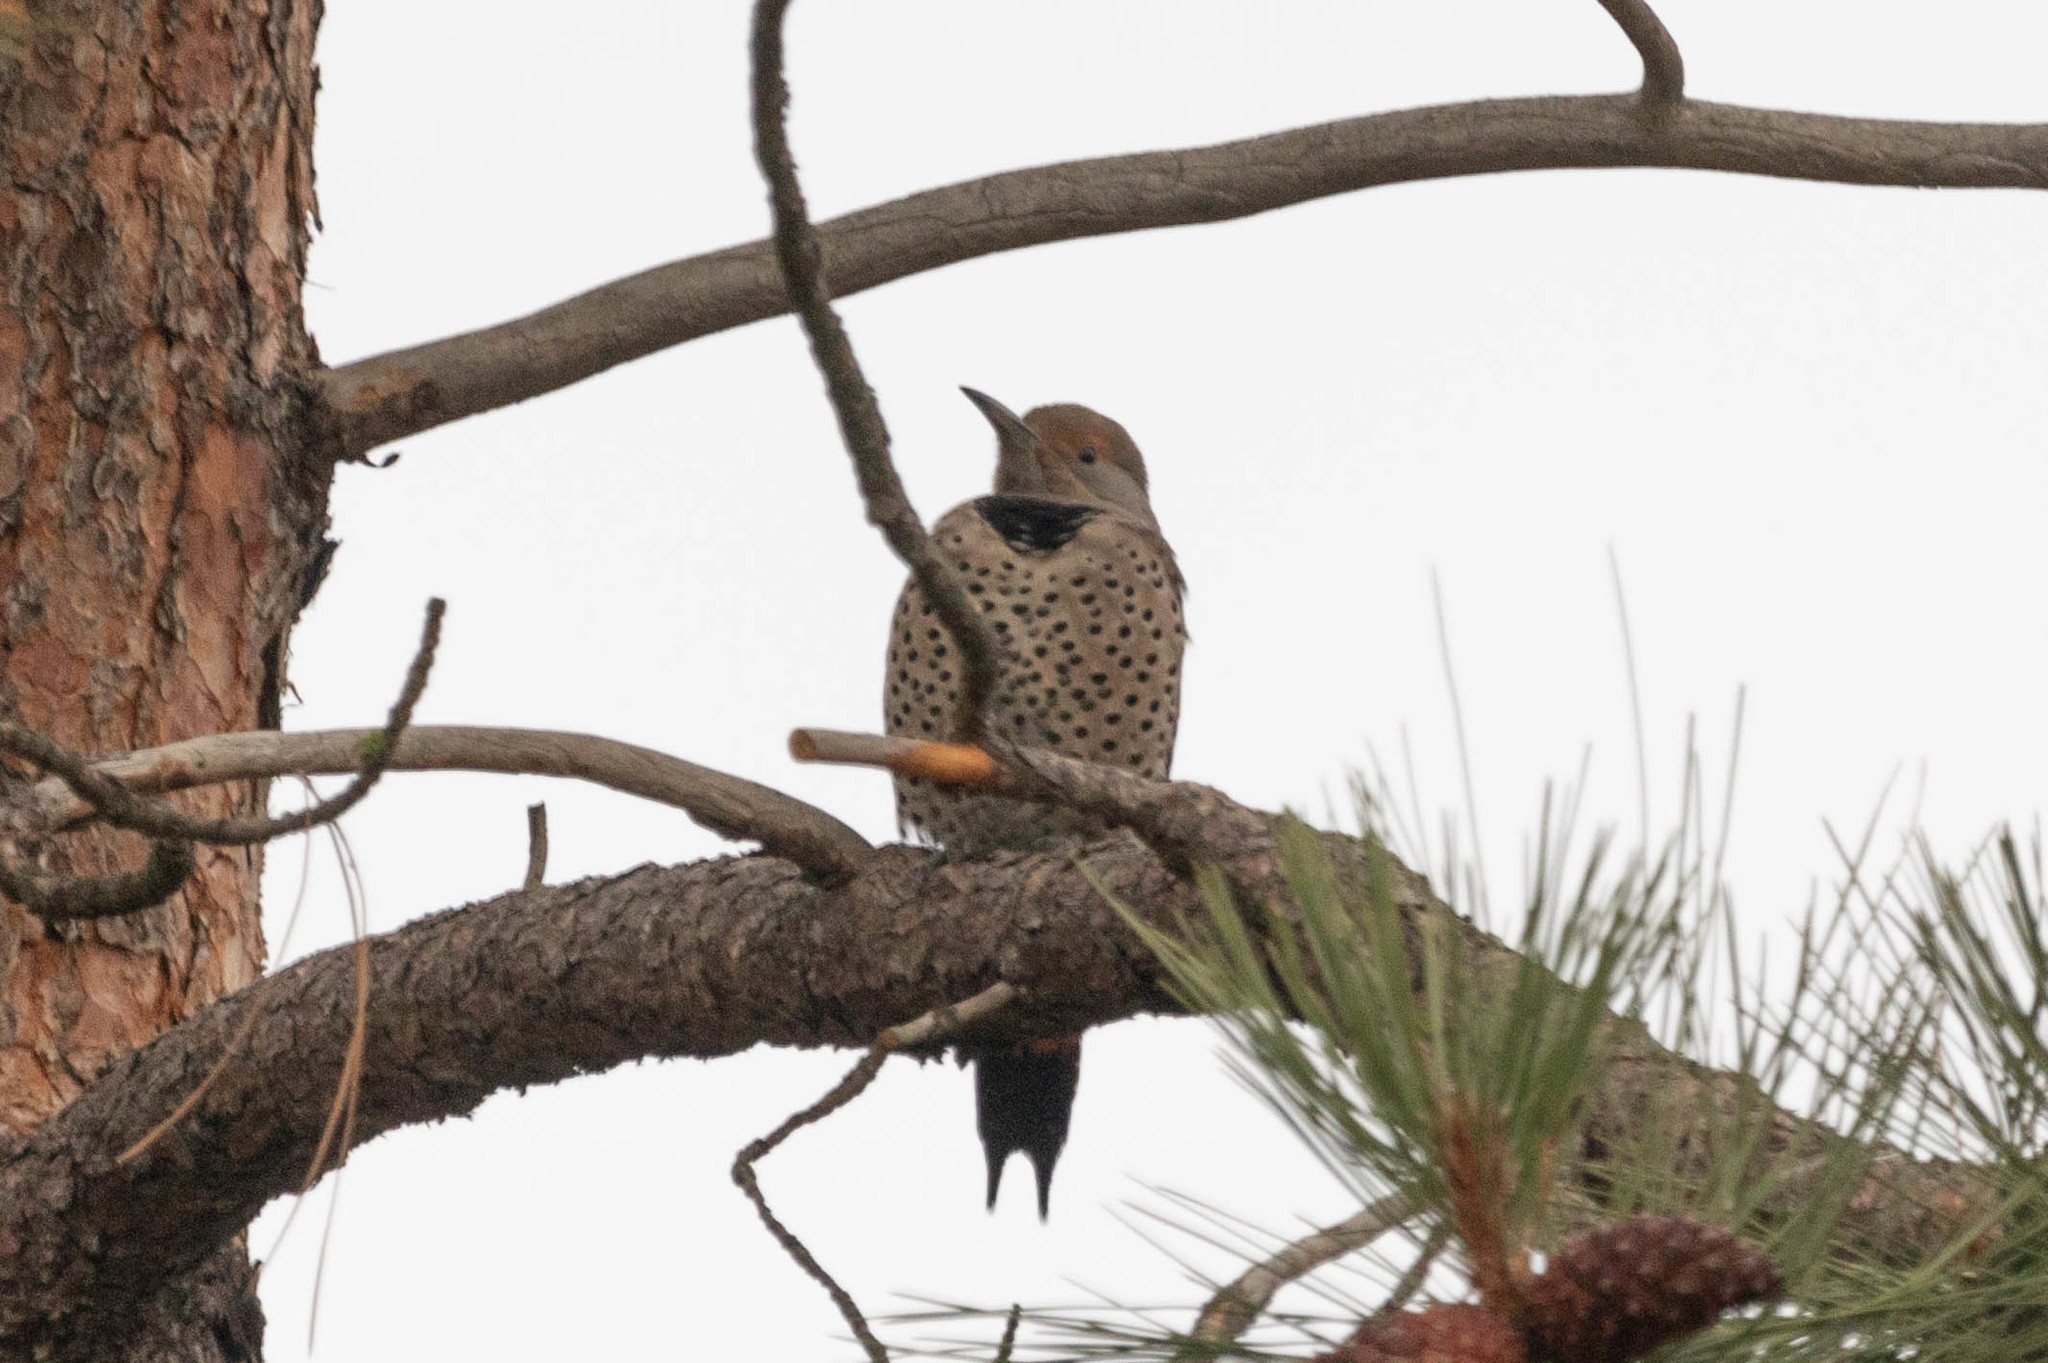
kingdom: Animalia
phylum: Chordata
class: Aves
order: Piciformes
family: Picidae
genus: Colaptes
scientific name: Colaptes auratus
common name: Northern flicker
